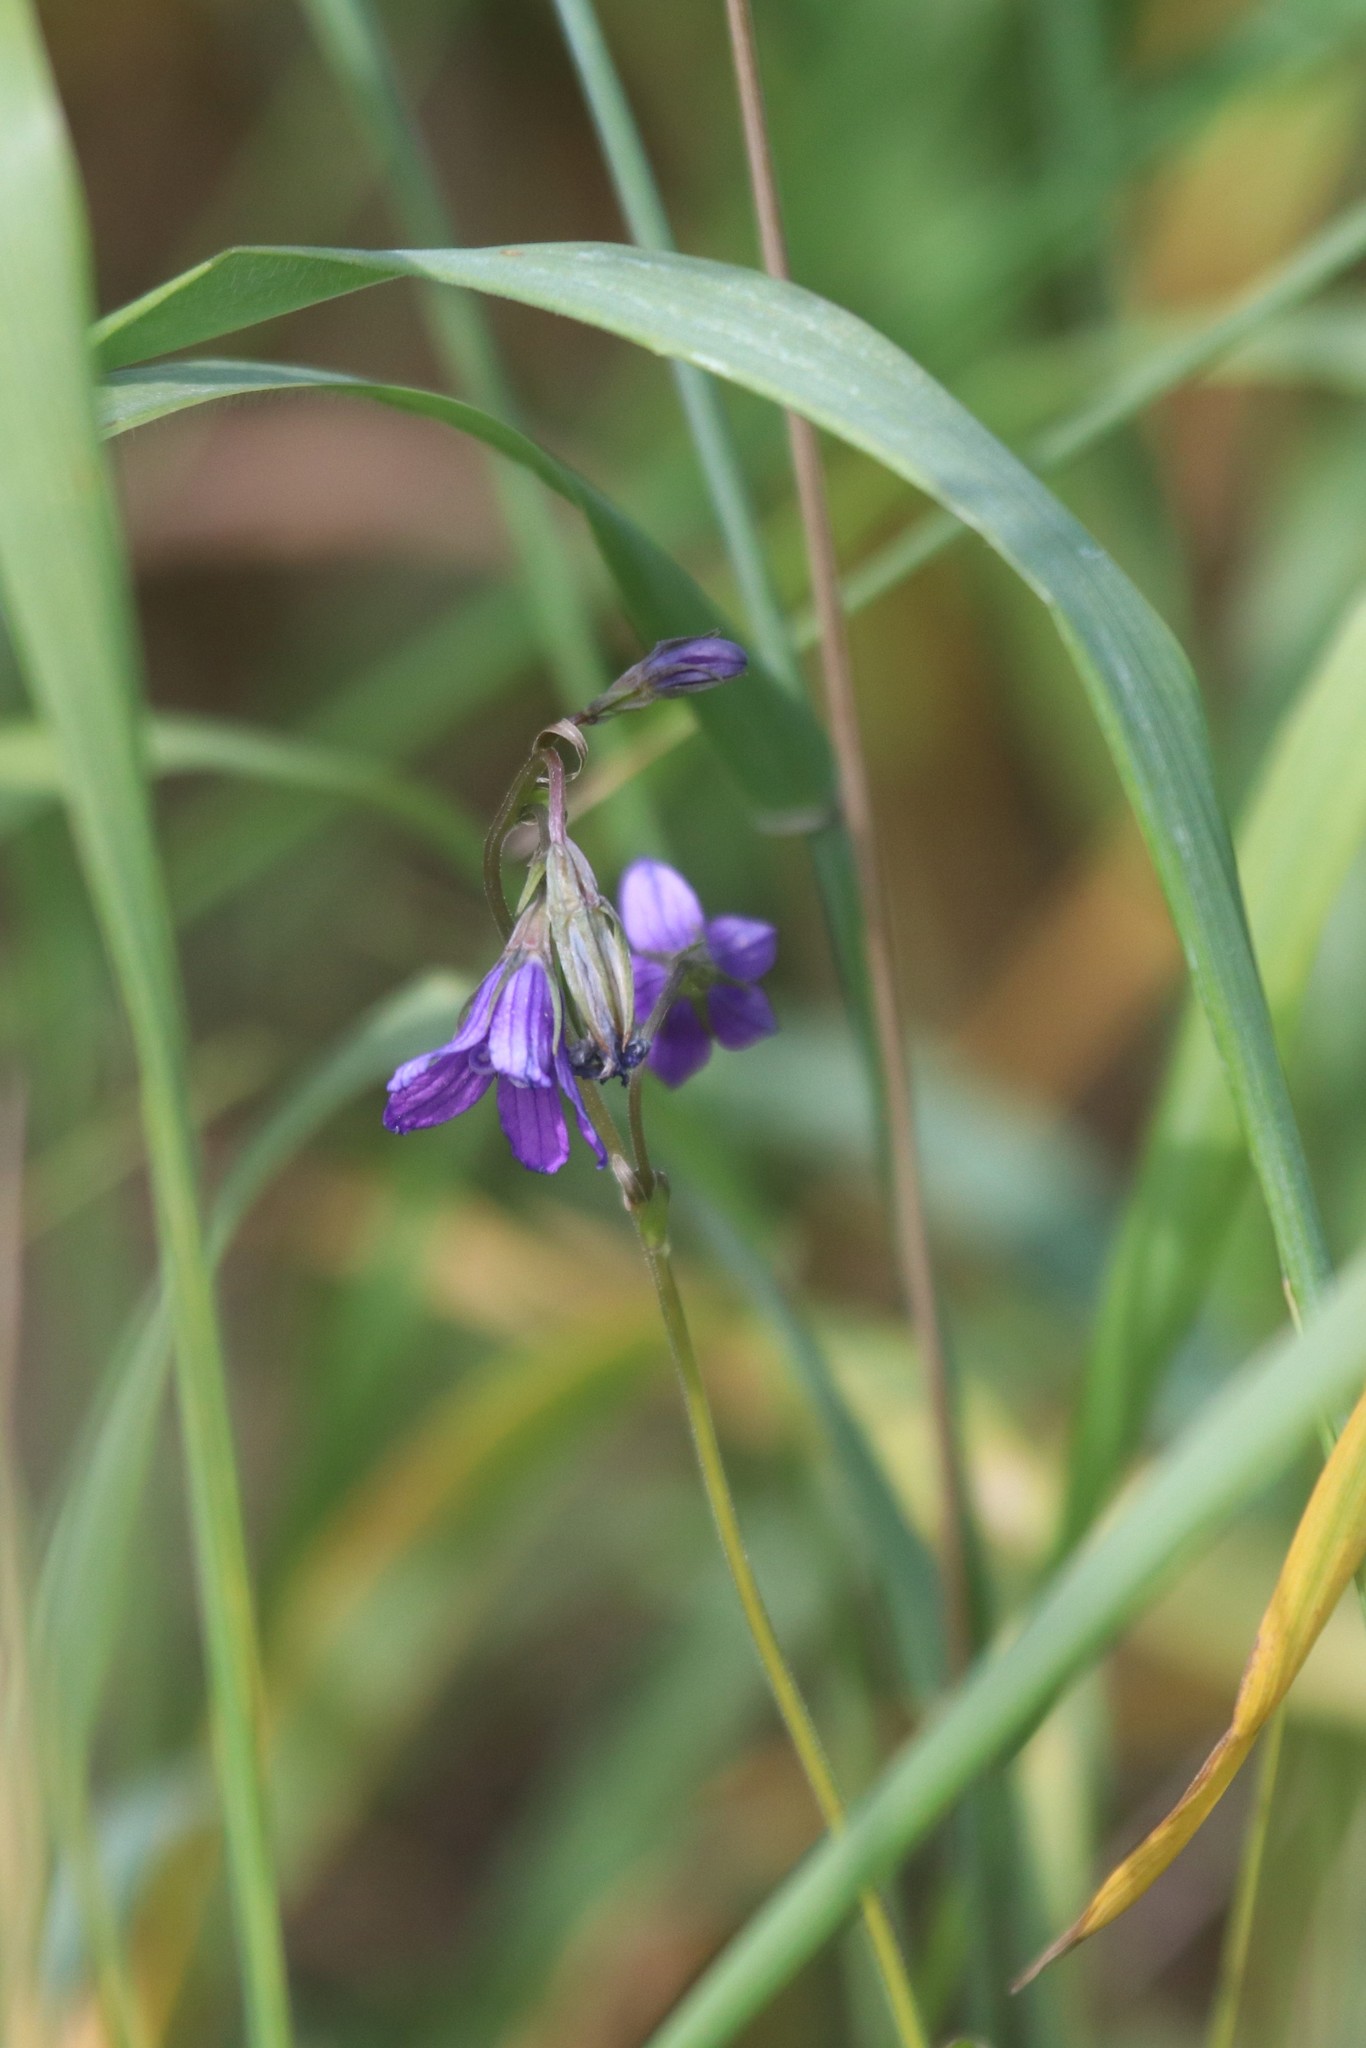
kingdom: Plantae
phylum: Tracheophyta
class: Magnoliopsida
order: Asterales
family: Campanulaceae
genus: Campanula
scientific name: Campanula patula
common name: Spreading bellflower
